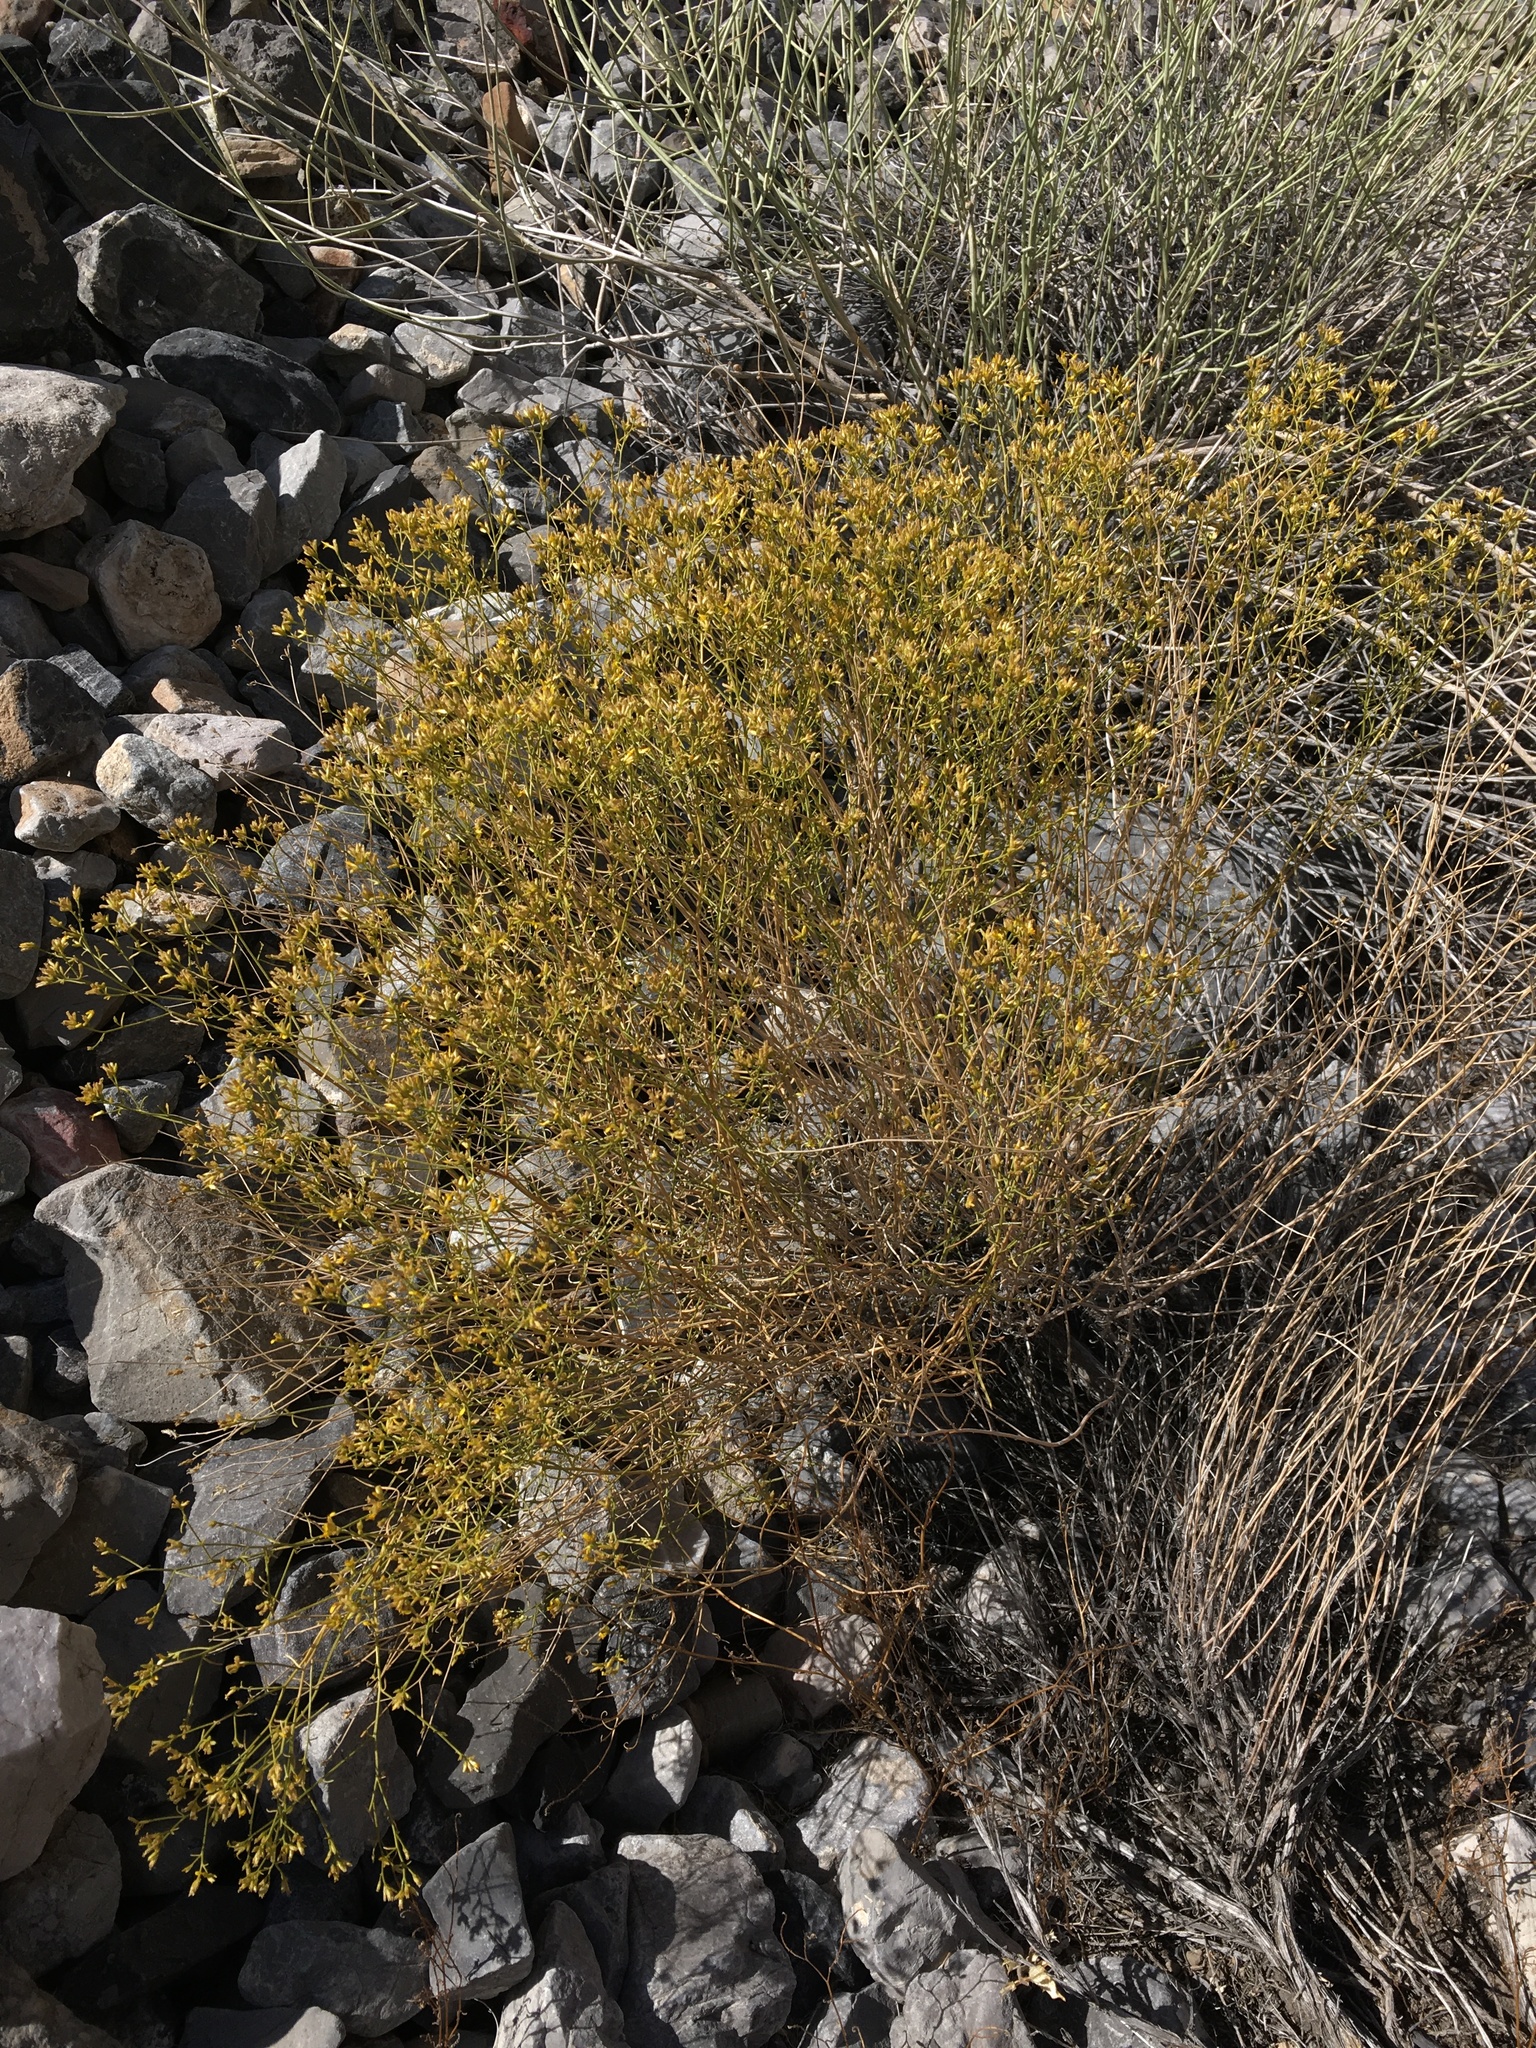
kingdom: Plantae
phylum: Tracheophyta
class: Magnoliopsida
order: Asterales
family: Asteraceae
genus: Gutierrezia
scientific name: Gutierrezia microcephala
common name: Thread snakeweed
